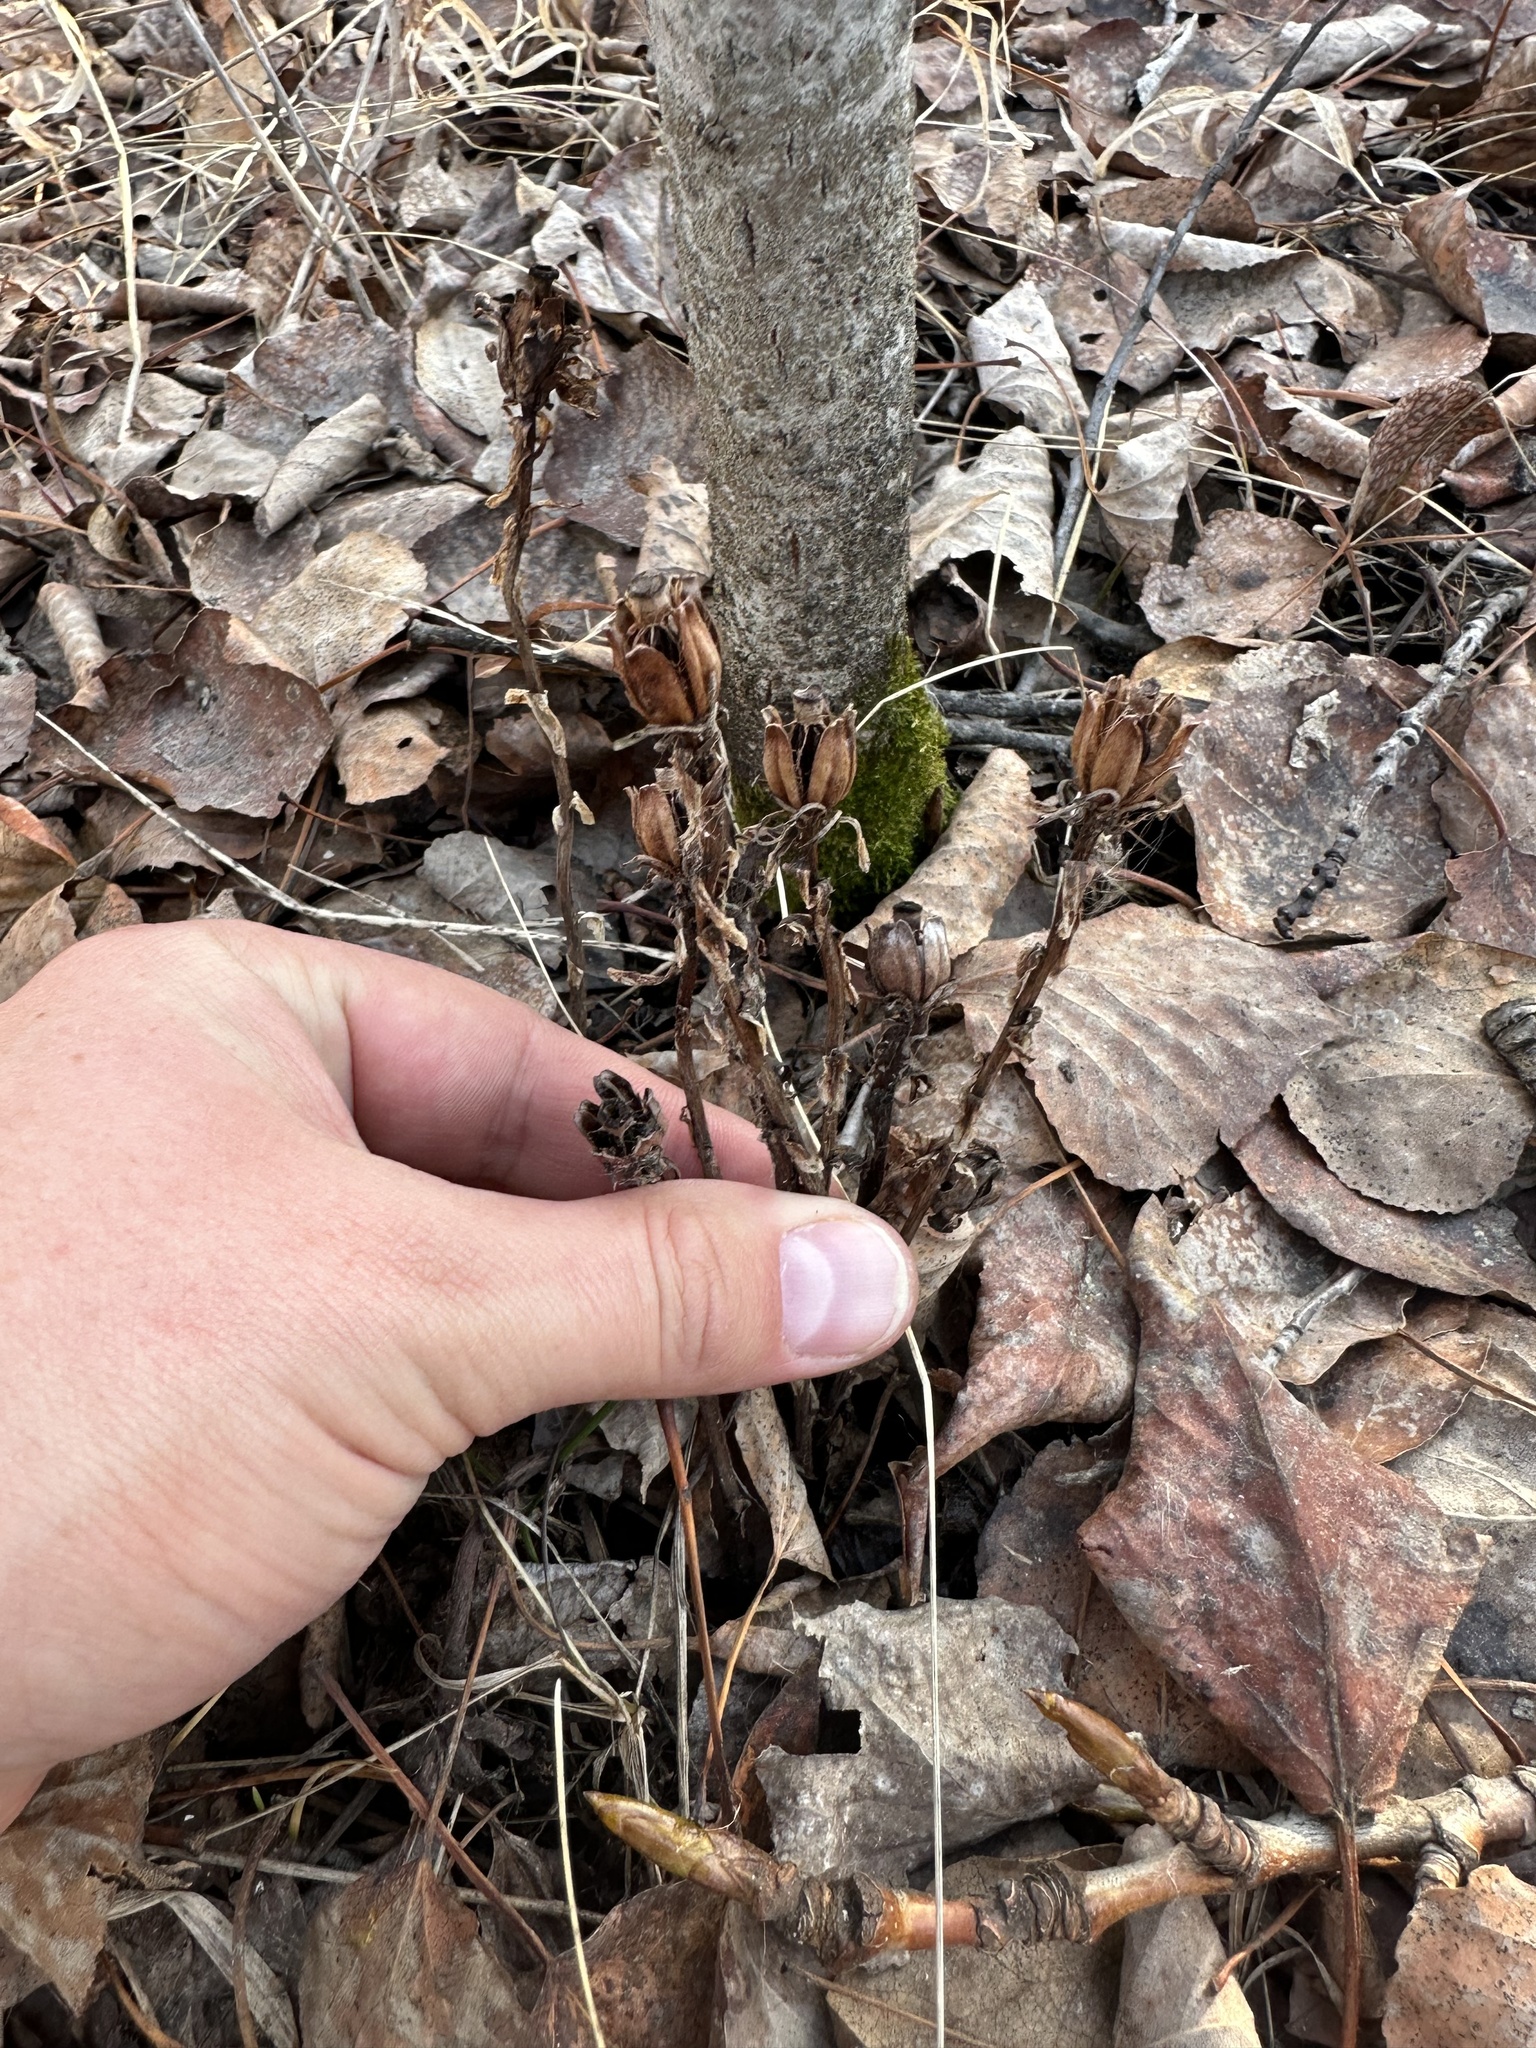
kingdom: Plantae
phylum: Tracheophyta
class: Magnoliopsida
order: Ericales
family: Ericaceae
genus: Monotropa
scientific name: Monotropa uniflora
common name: Convulsion root
